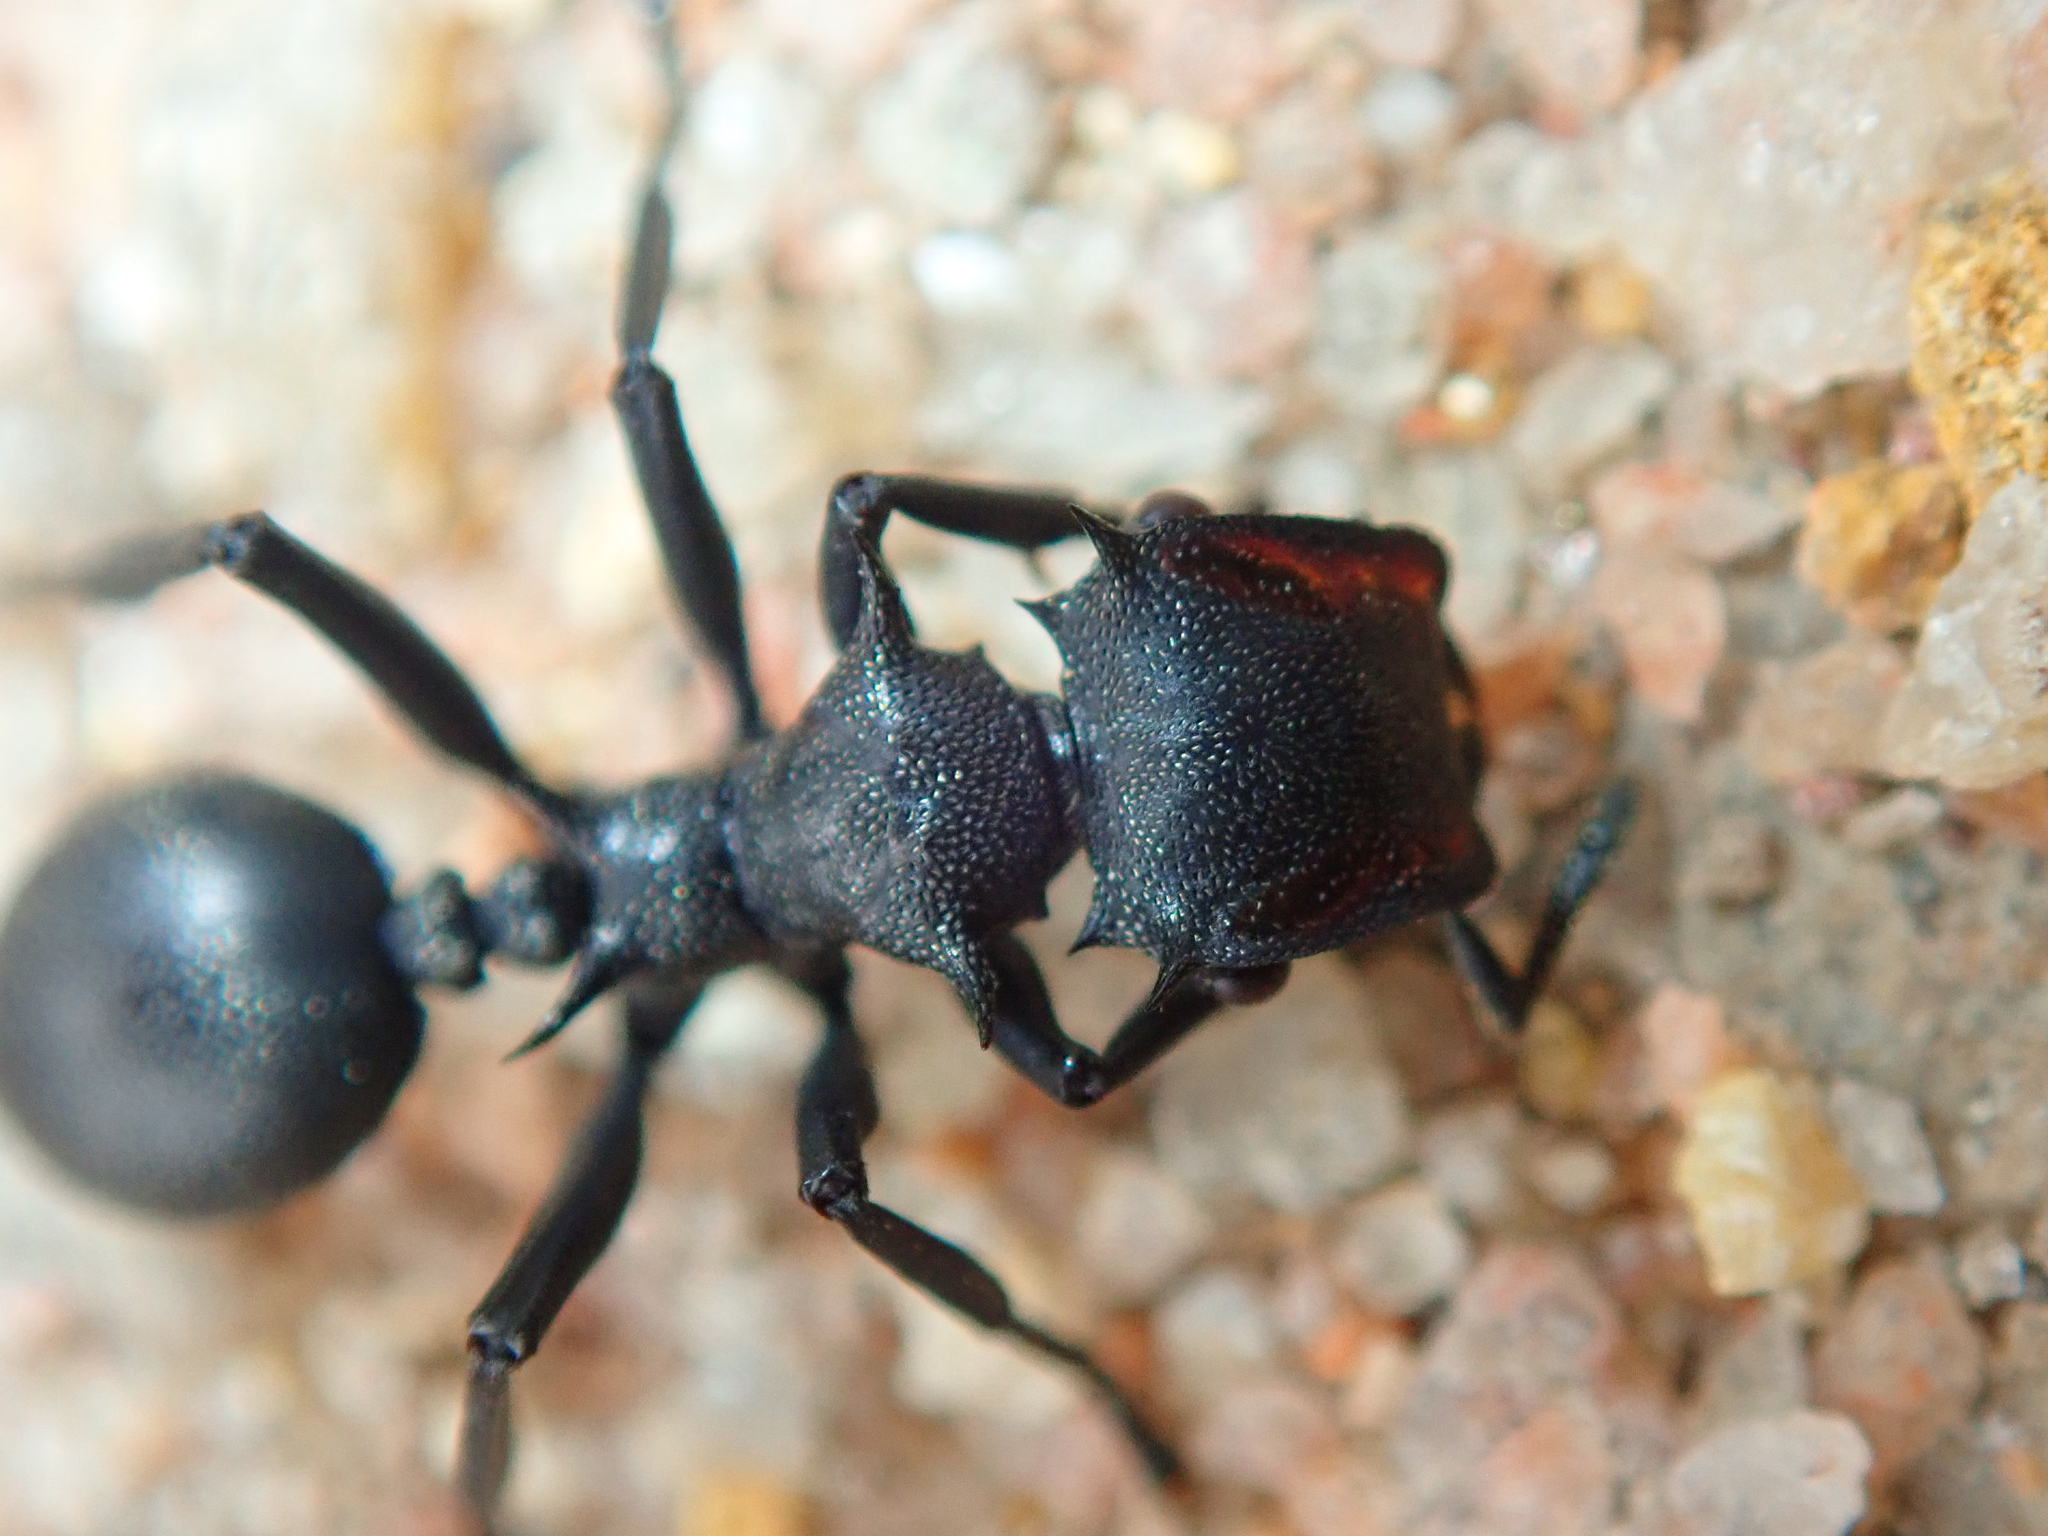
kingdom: Animalia
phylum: Arthropoda
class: Insecta
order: Hymenoptera
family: Formicidae
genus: Cephalotes
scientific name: Cephalotes atratus
